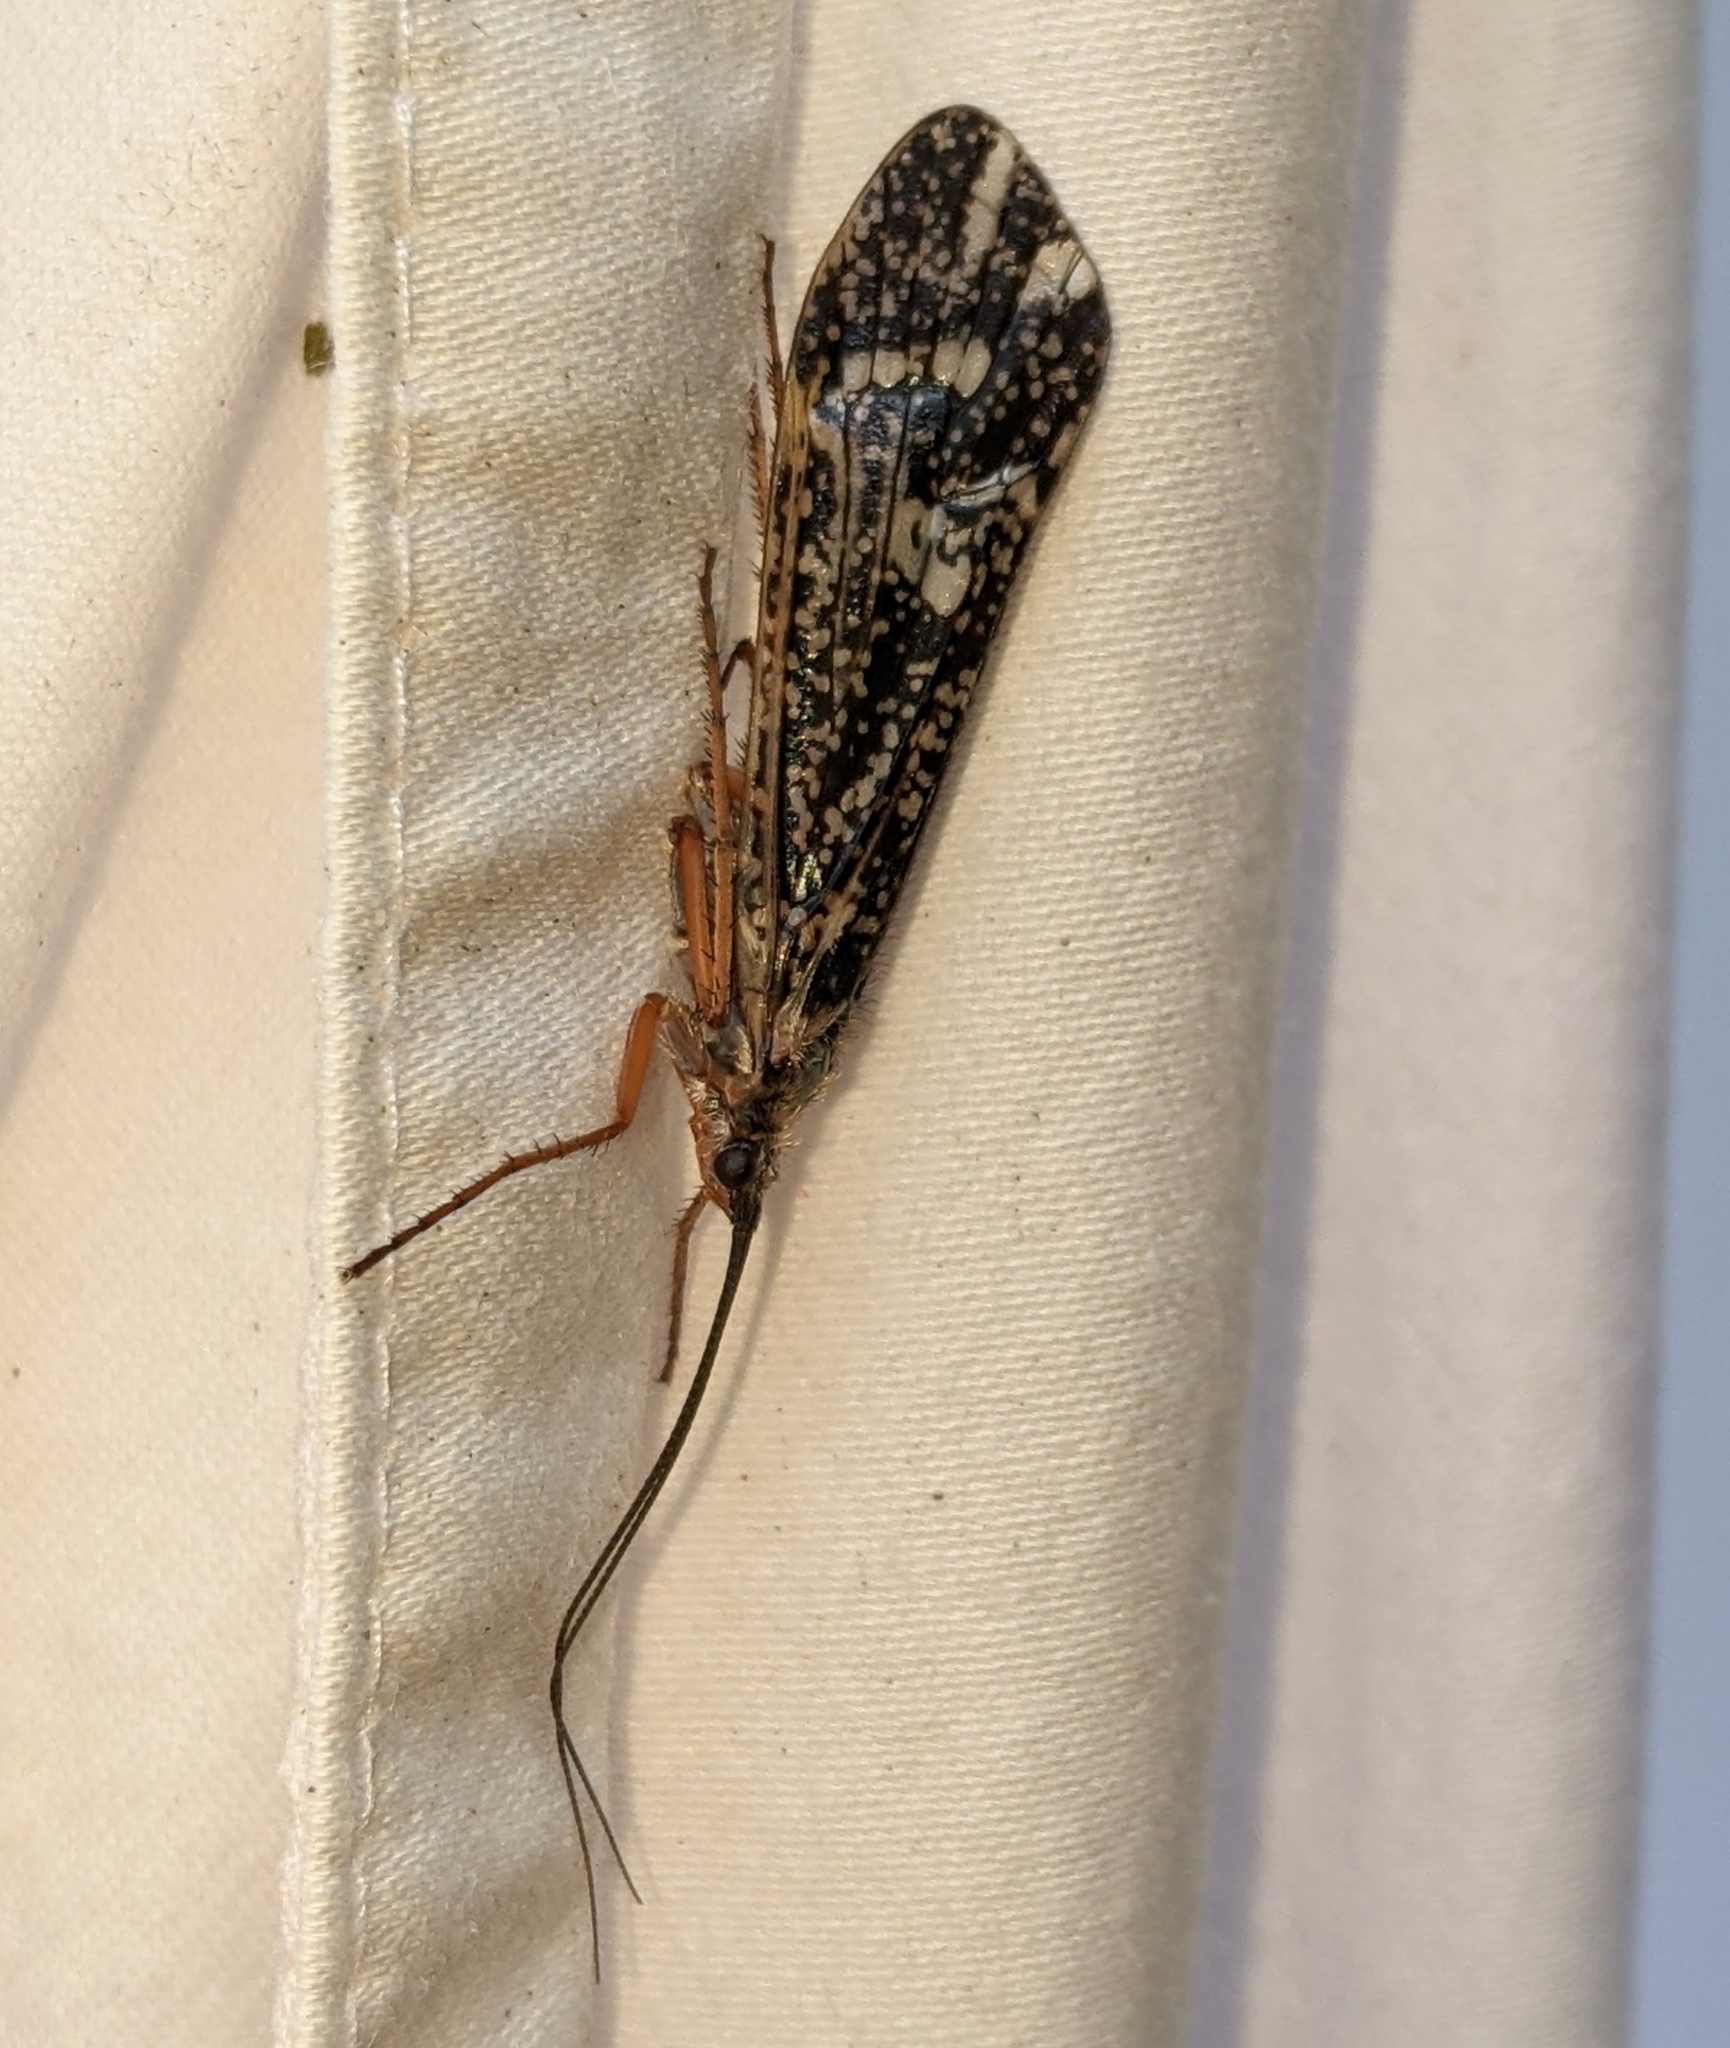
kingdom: Animalia
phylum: Arthropoda
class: Insecta
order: Trichoptera
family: Limnephilidae
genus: Clistoronia
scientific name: Clistoronia magnifica
